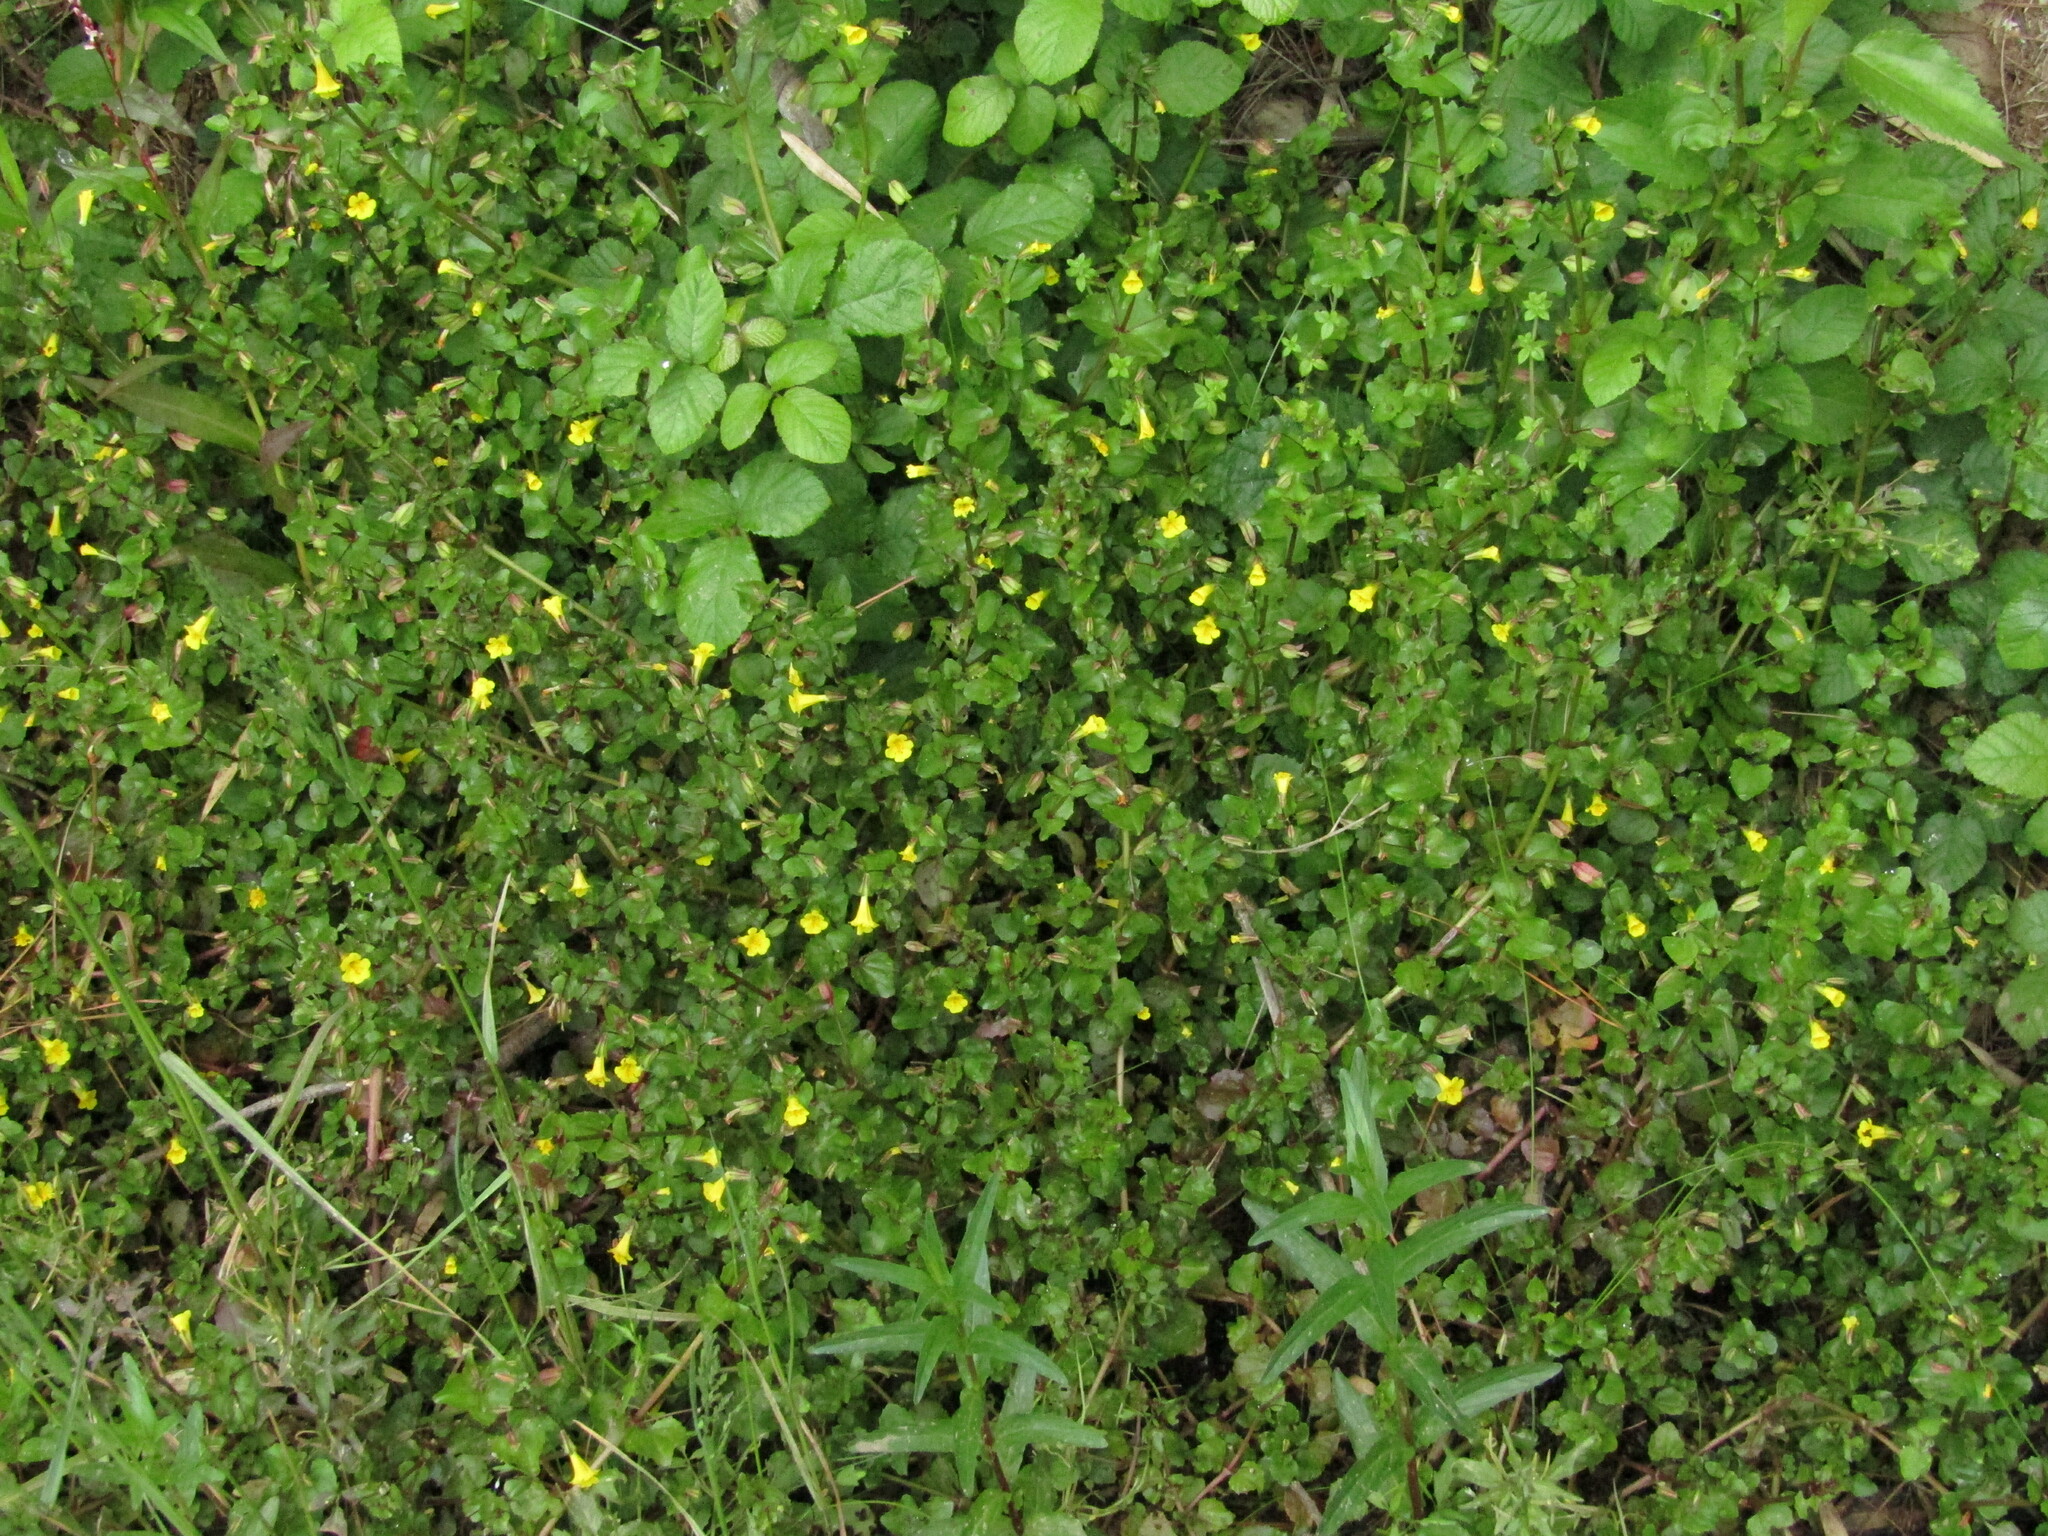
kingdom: Plantae
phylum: Tracheophyta
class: Magnoliopsida
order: Lamiales
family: Phrymaceae
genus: Erythranthe
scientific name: Erythranthe andicola
